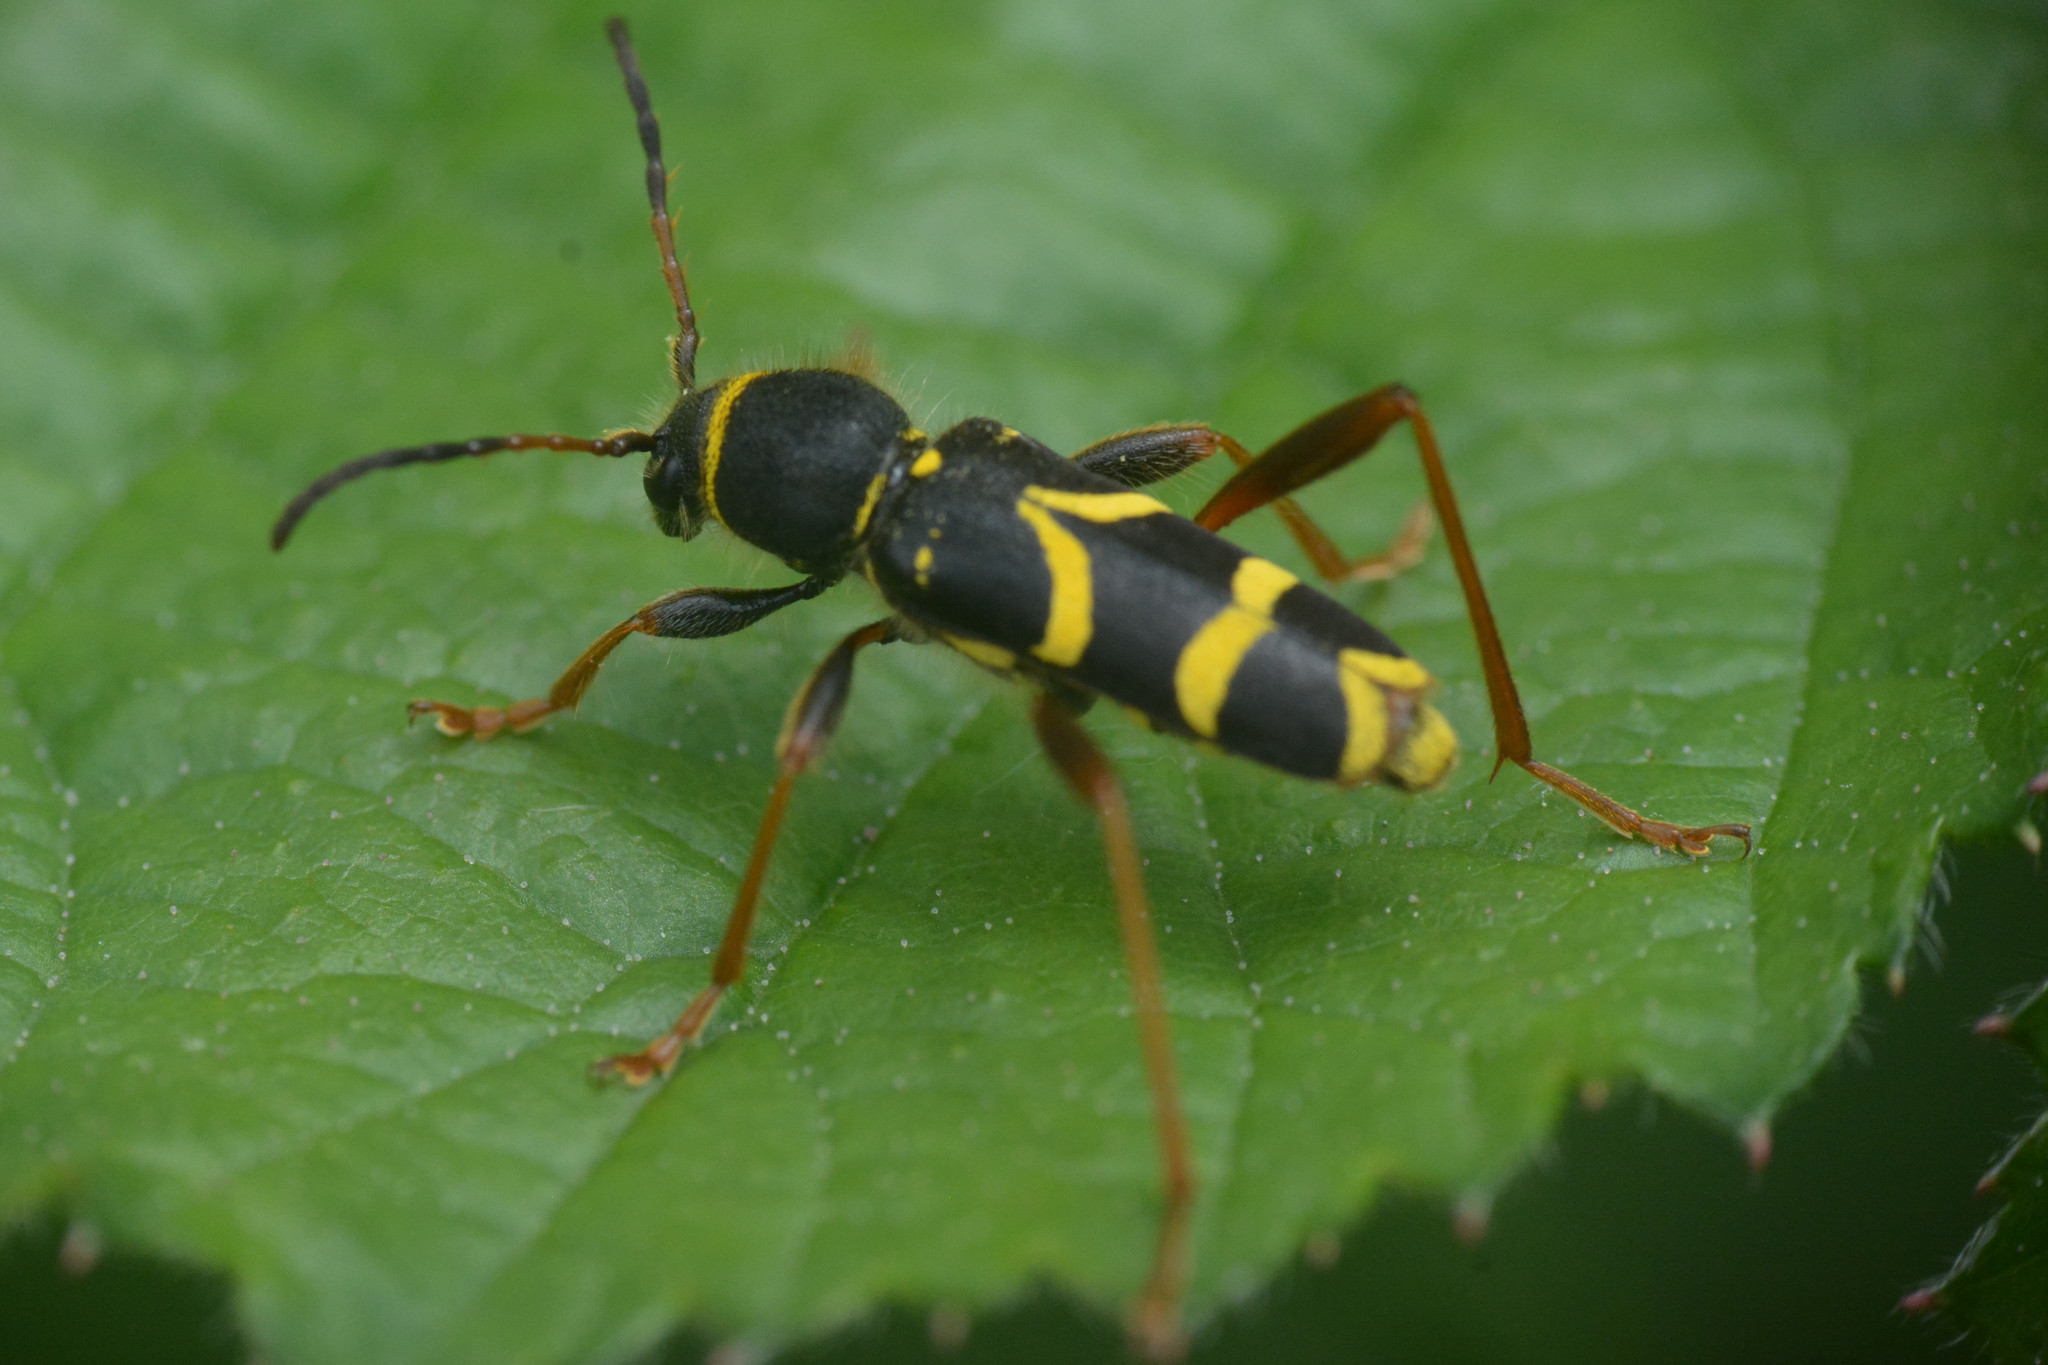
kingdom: Animalia
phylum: Arthropoda
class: Insecta
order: Coleoptera
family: Cerambycidae
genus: Clytus
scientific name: Clytus arietis
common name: Wasp beetle
